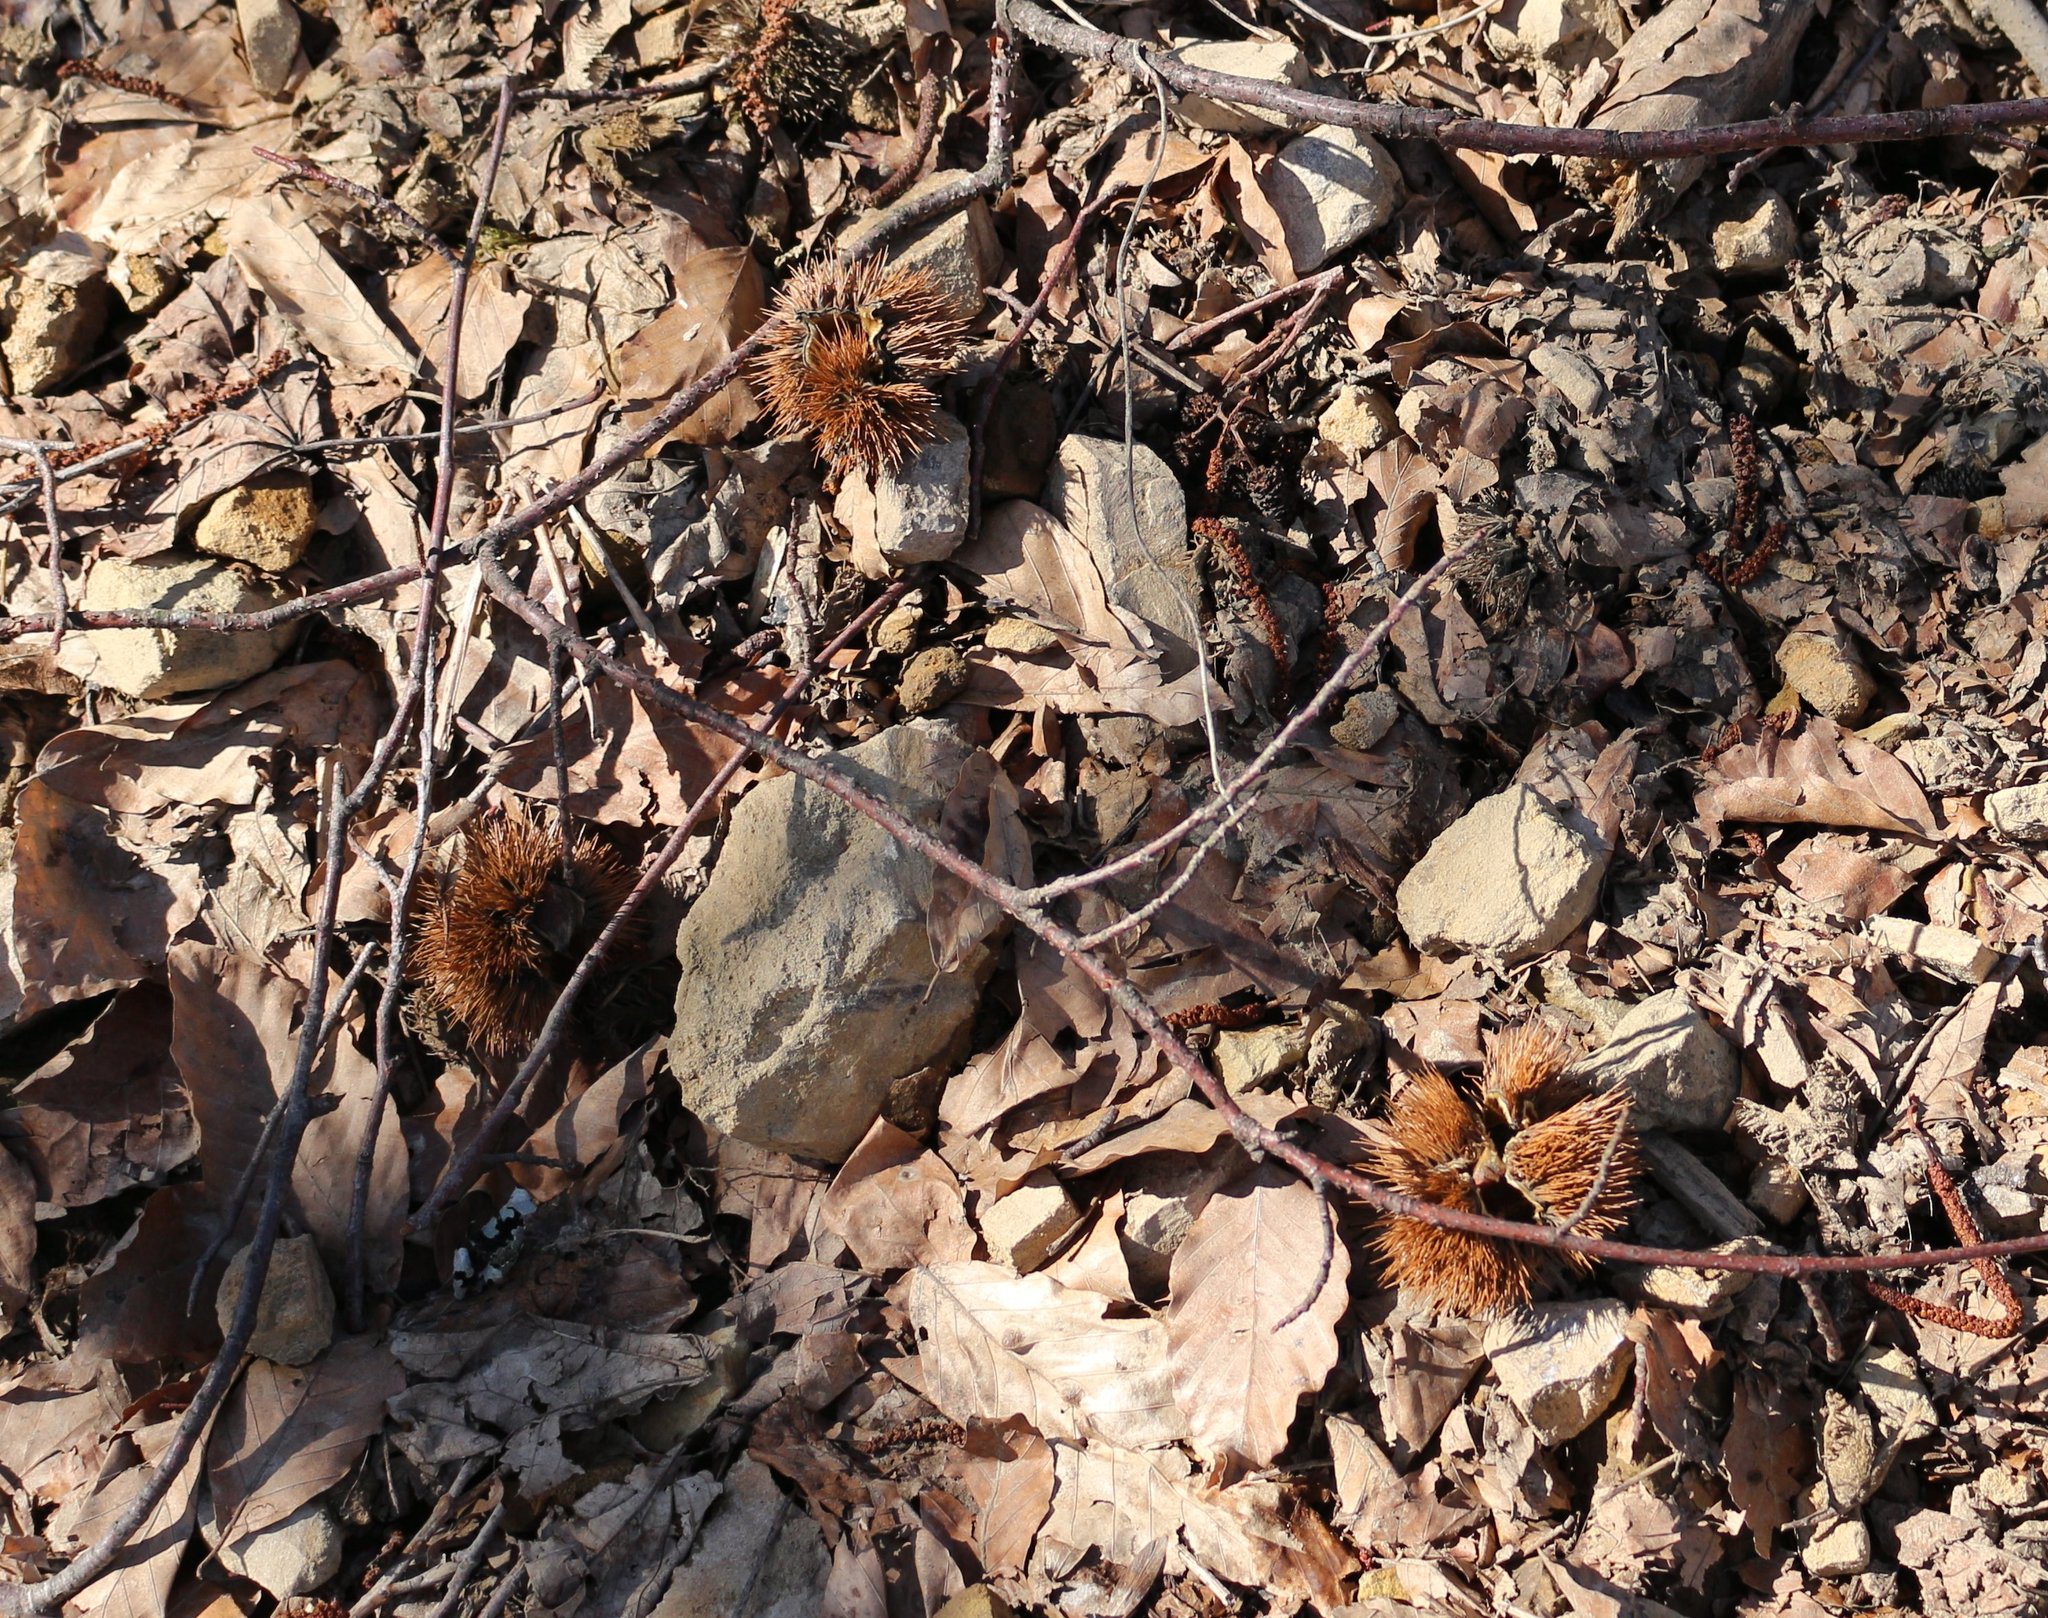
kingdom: Plantae
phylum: Tracheophyta
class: Magnoliopsida
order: Fagales
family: Fagaceae
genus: Castanea
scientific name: Castanea sativa
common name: Sweet chestnut
